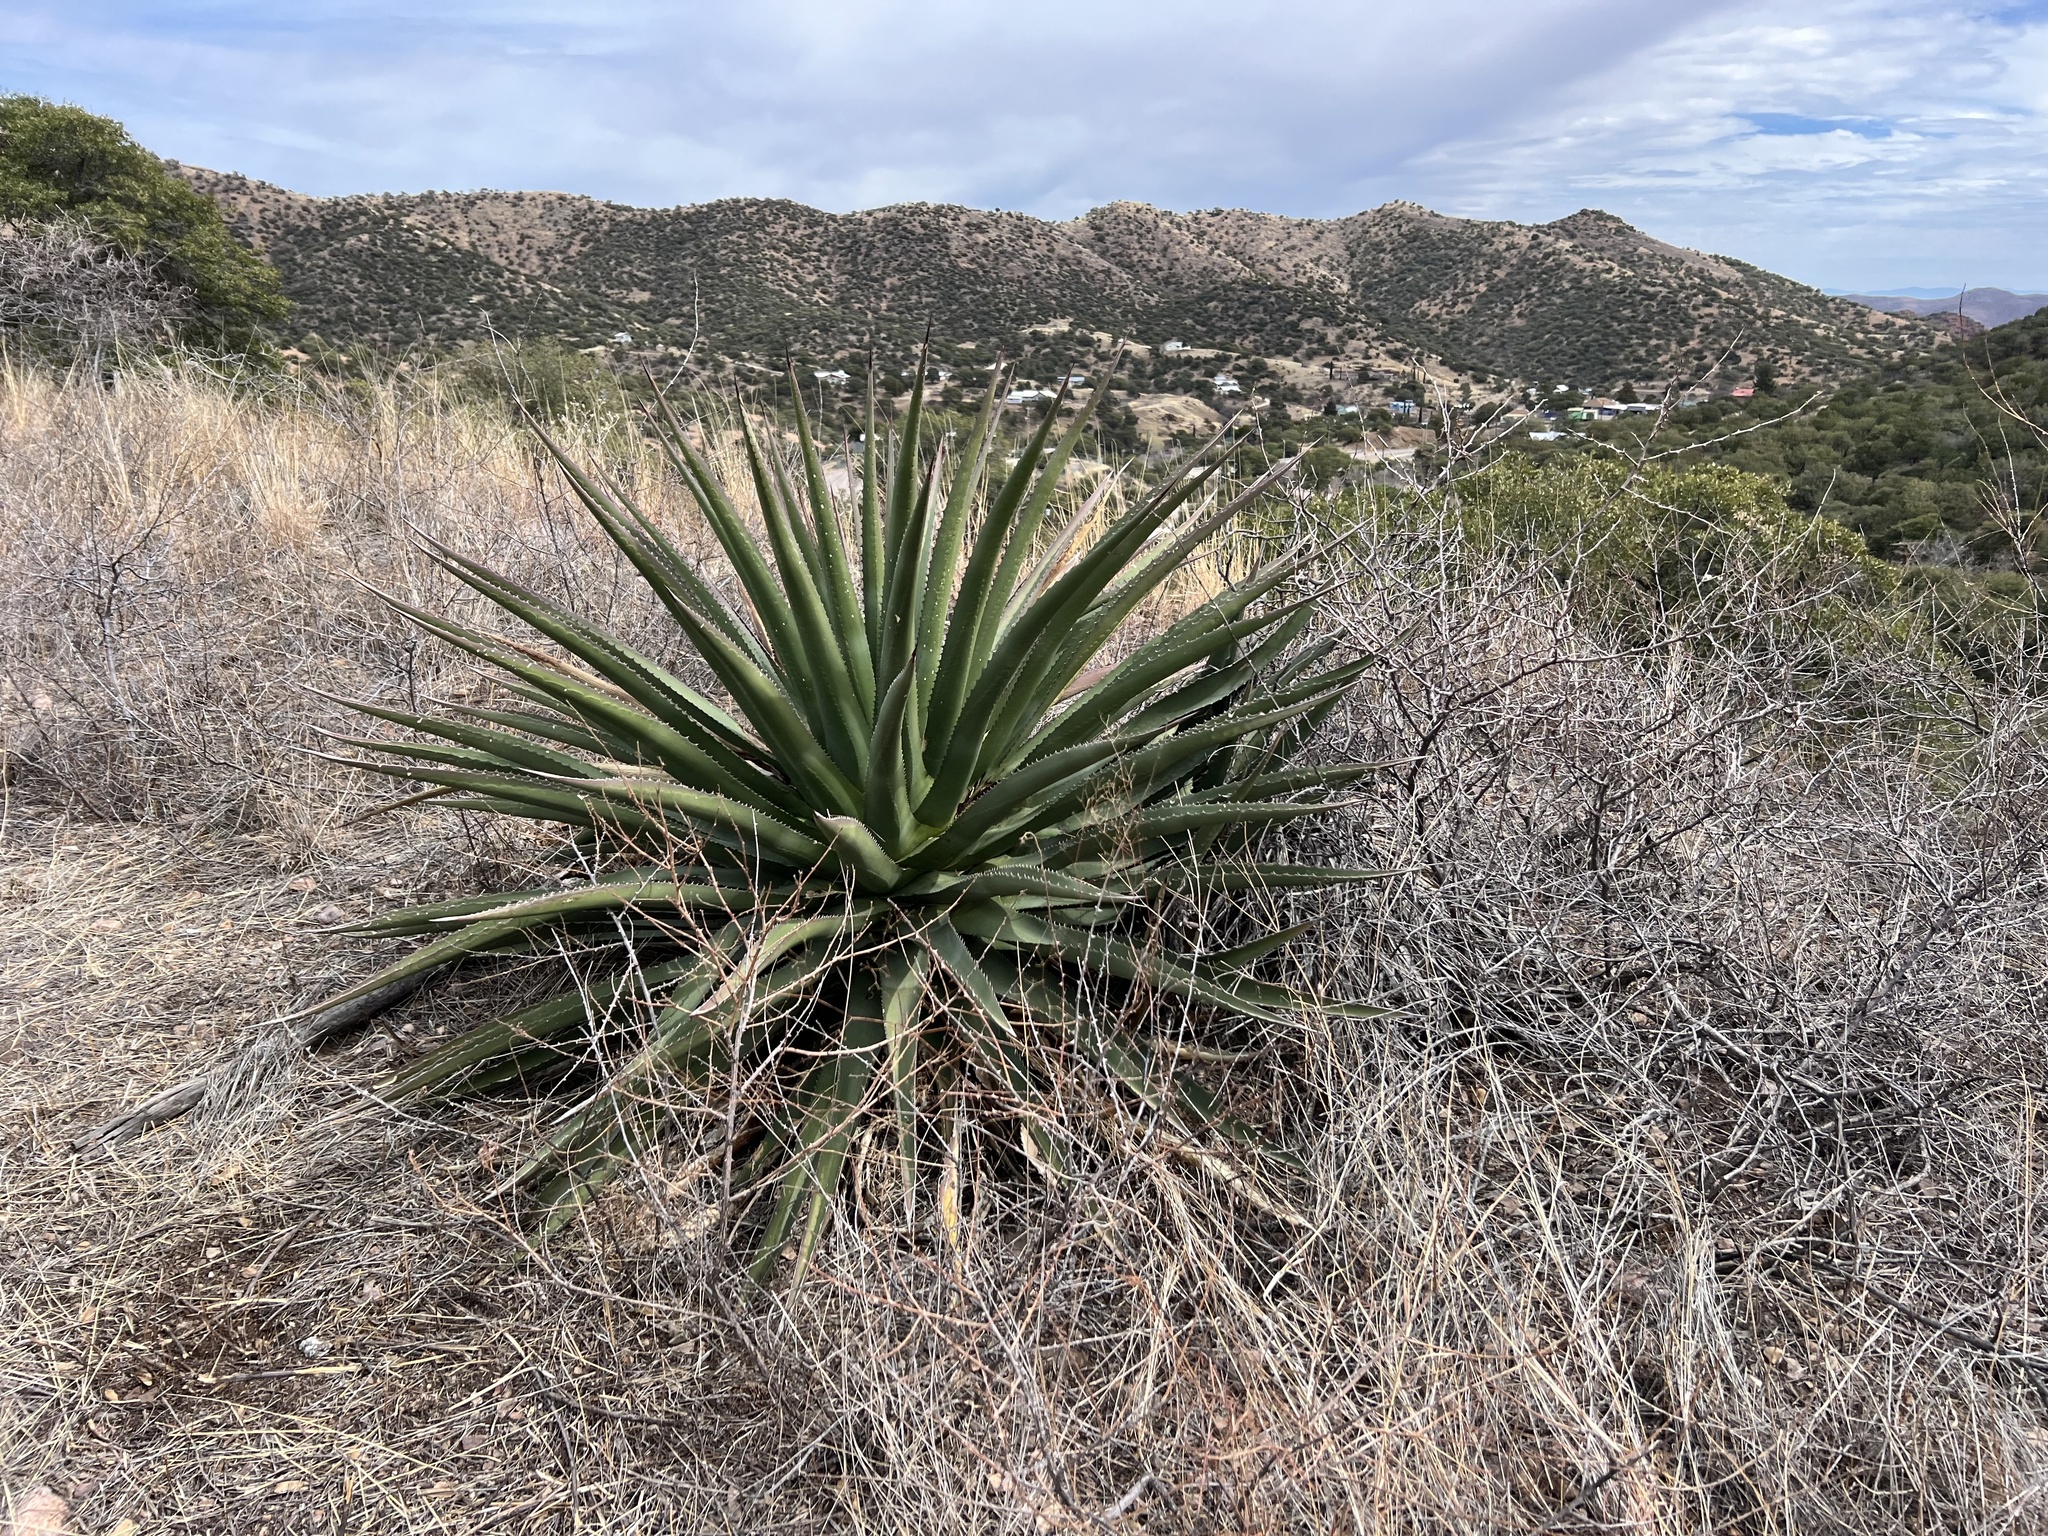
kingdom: Plantae
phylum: Tracheophyta
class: Liliopsida
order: Asparagales
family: Asparagaceae
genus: Agave
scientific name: Agave palmeri
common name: Palmer agave
